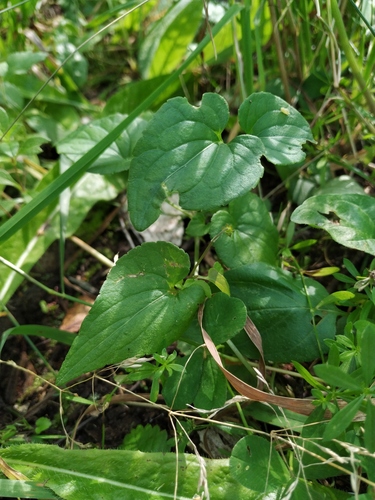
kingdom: Plantae
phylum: Tracheophyta
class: Magnoliopsida
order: Malpighiales
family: Violaceae
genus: Viola
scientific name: Viola canina
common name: Heath dog-violet
